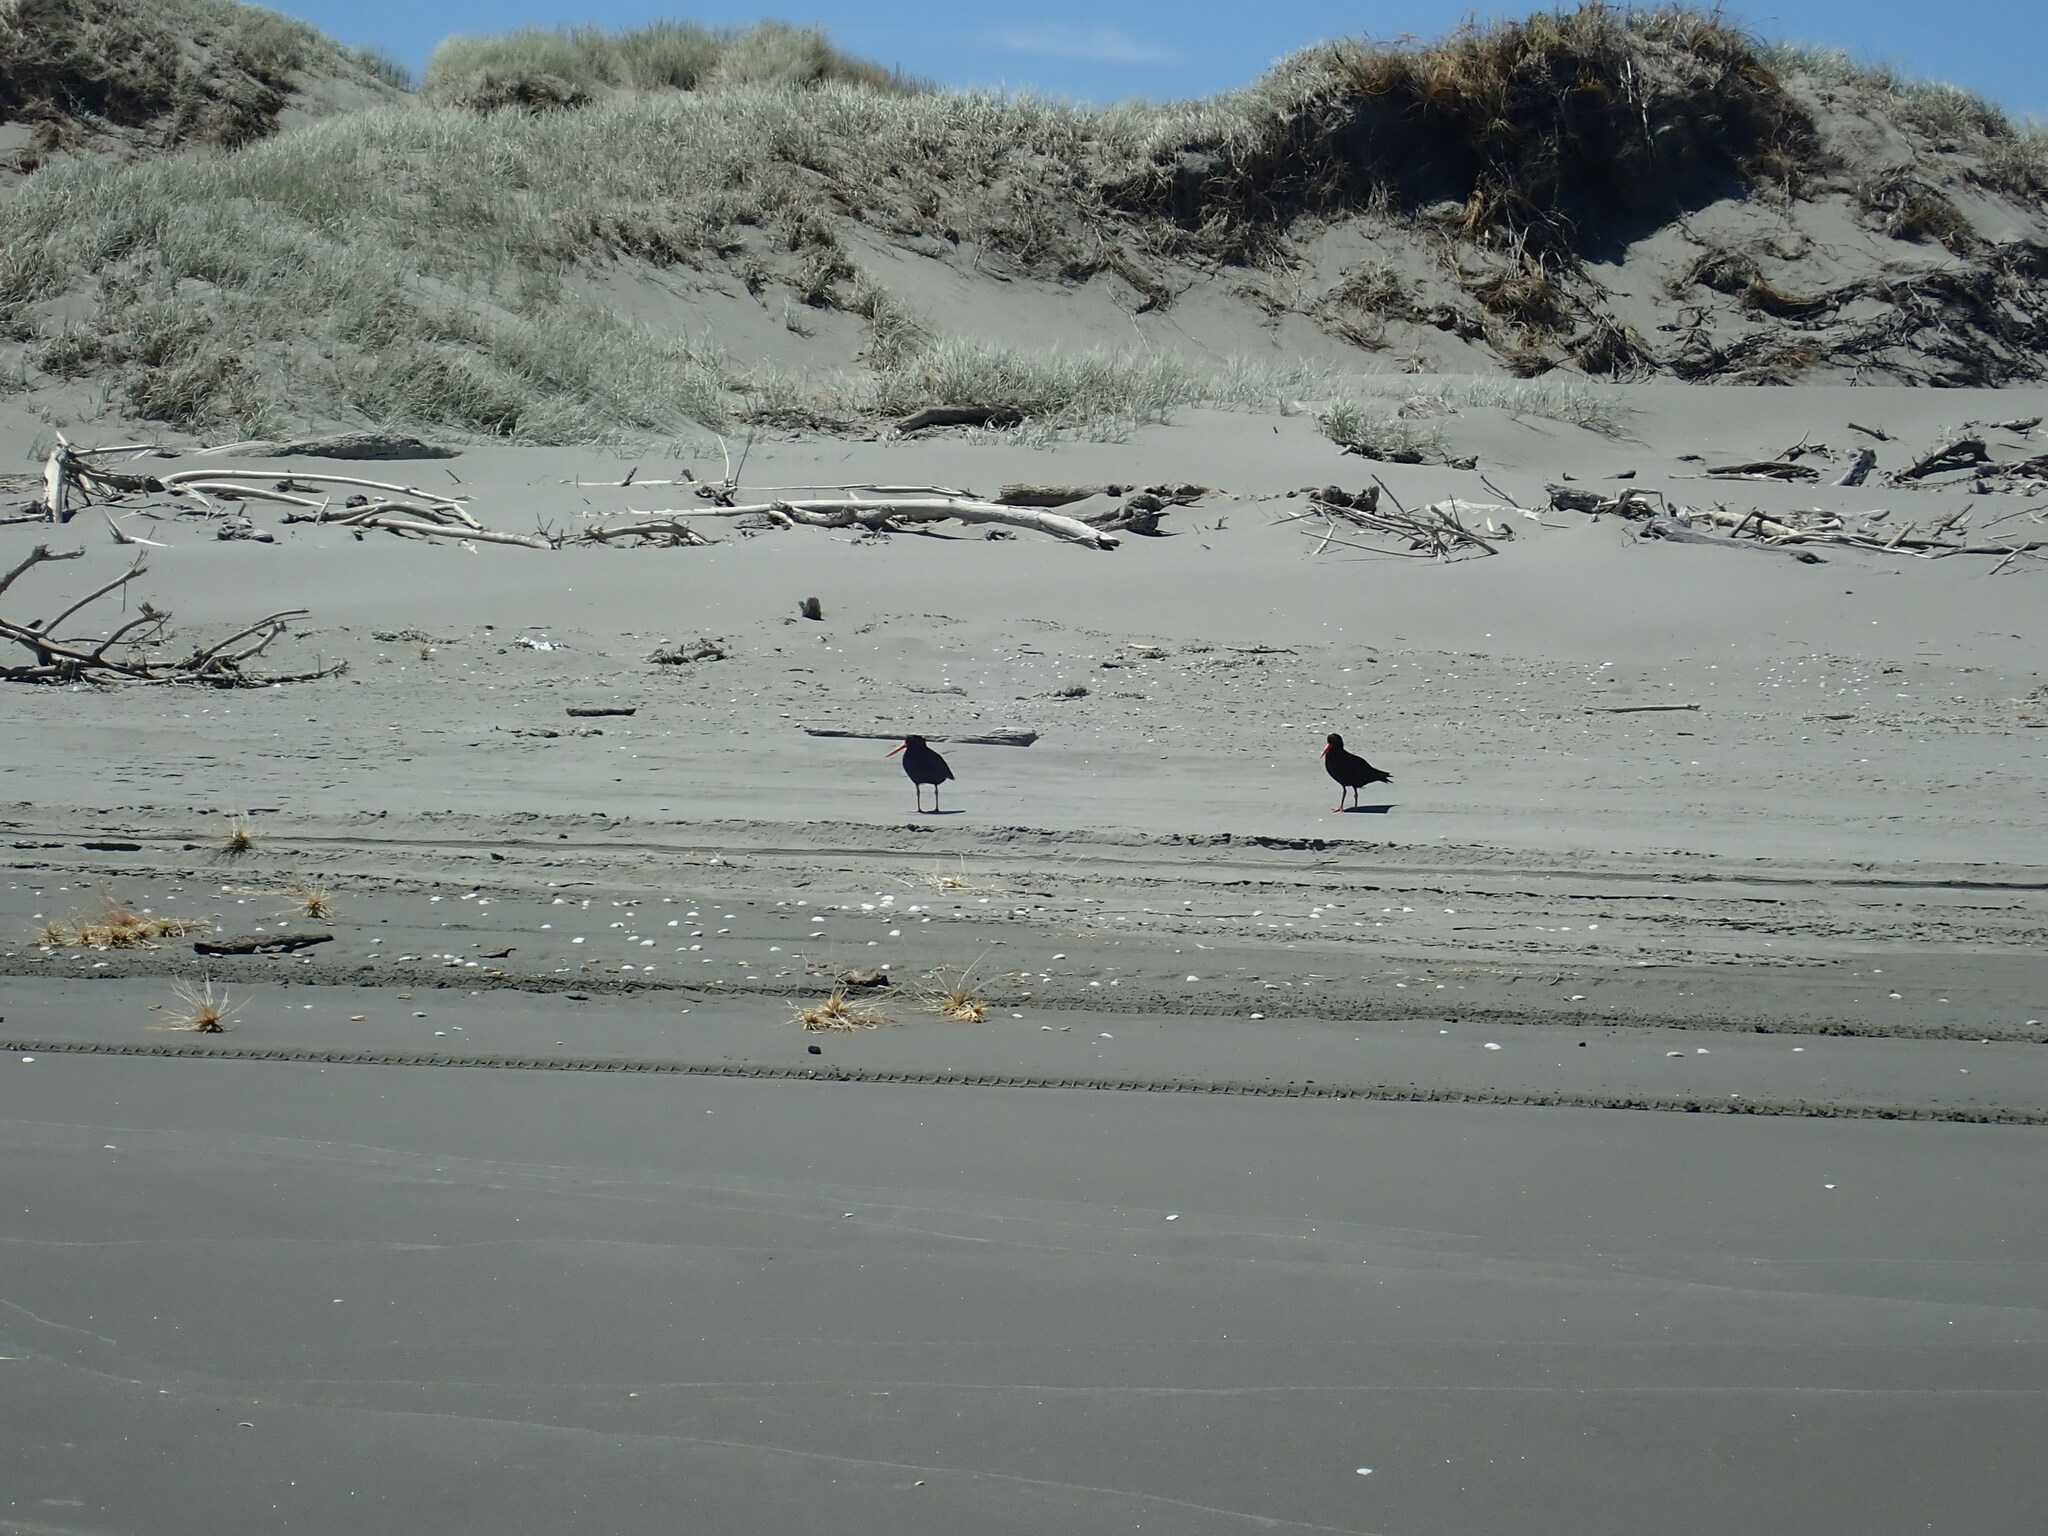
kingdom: Animalia
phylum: Chordata
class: Aves
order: Charadriiformes
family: Haematopodidae
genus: Haematopus
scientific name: Haematopus unicolor
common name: Variable oystercatcher
